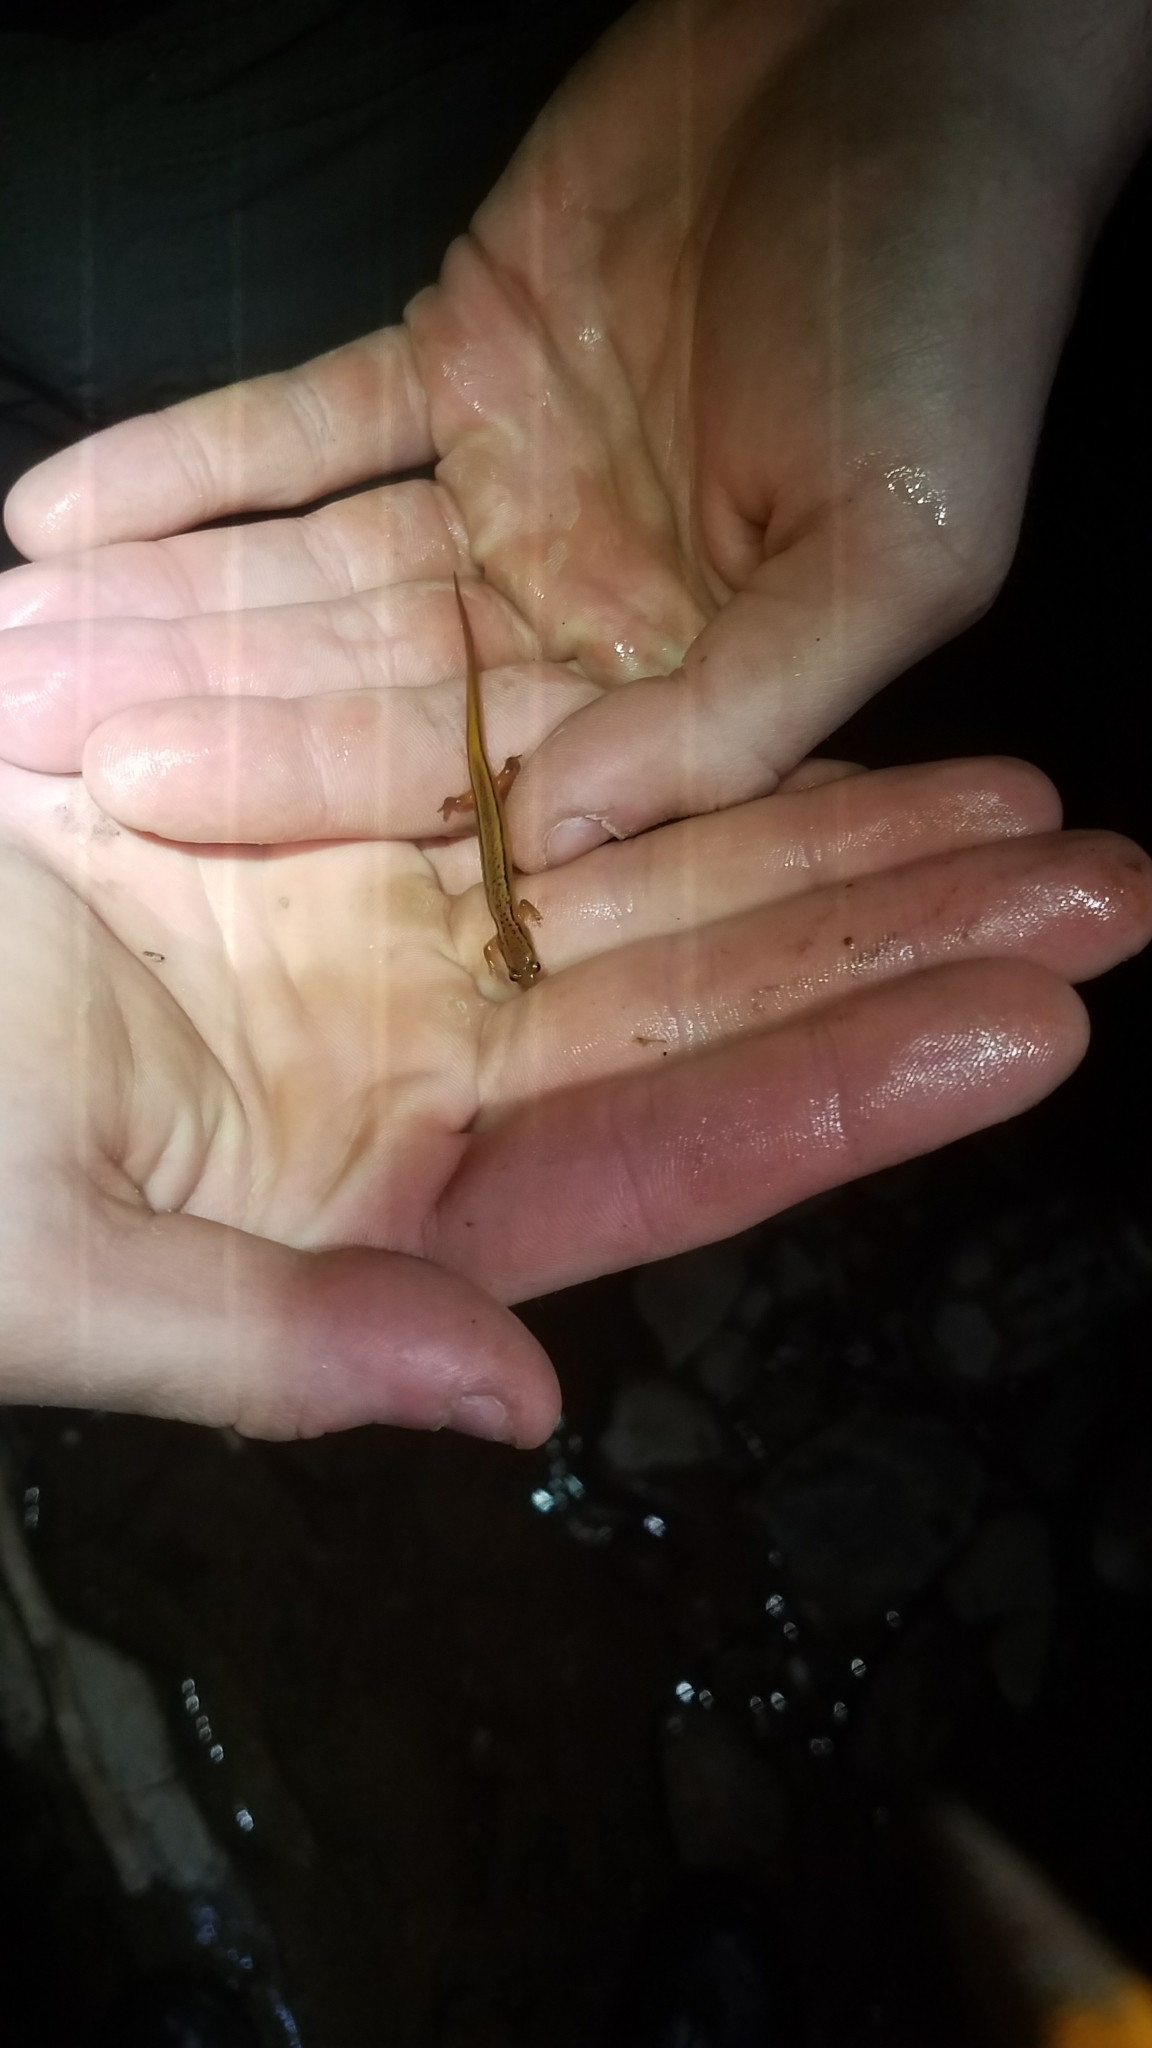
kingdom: Animalia
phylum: Chordata
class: Amphibia
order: Caudata
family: Plethodontidae
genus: Eurycea
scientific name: Eurycea bislineata
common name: Northern two-lined salamander
